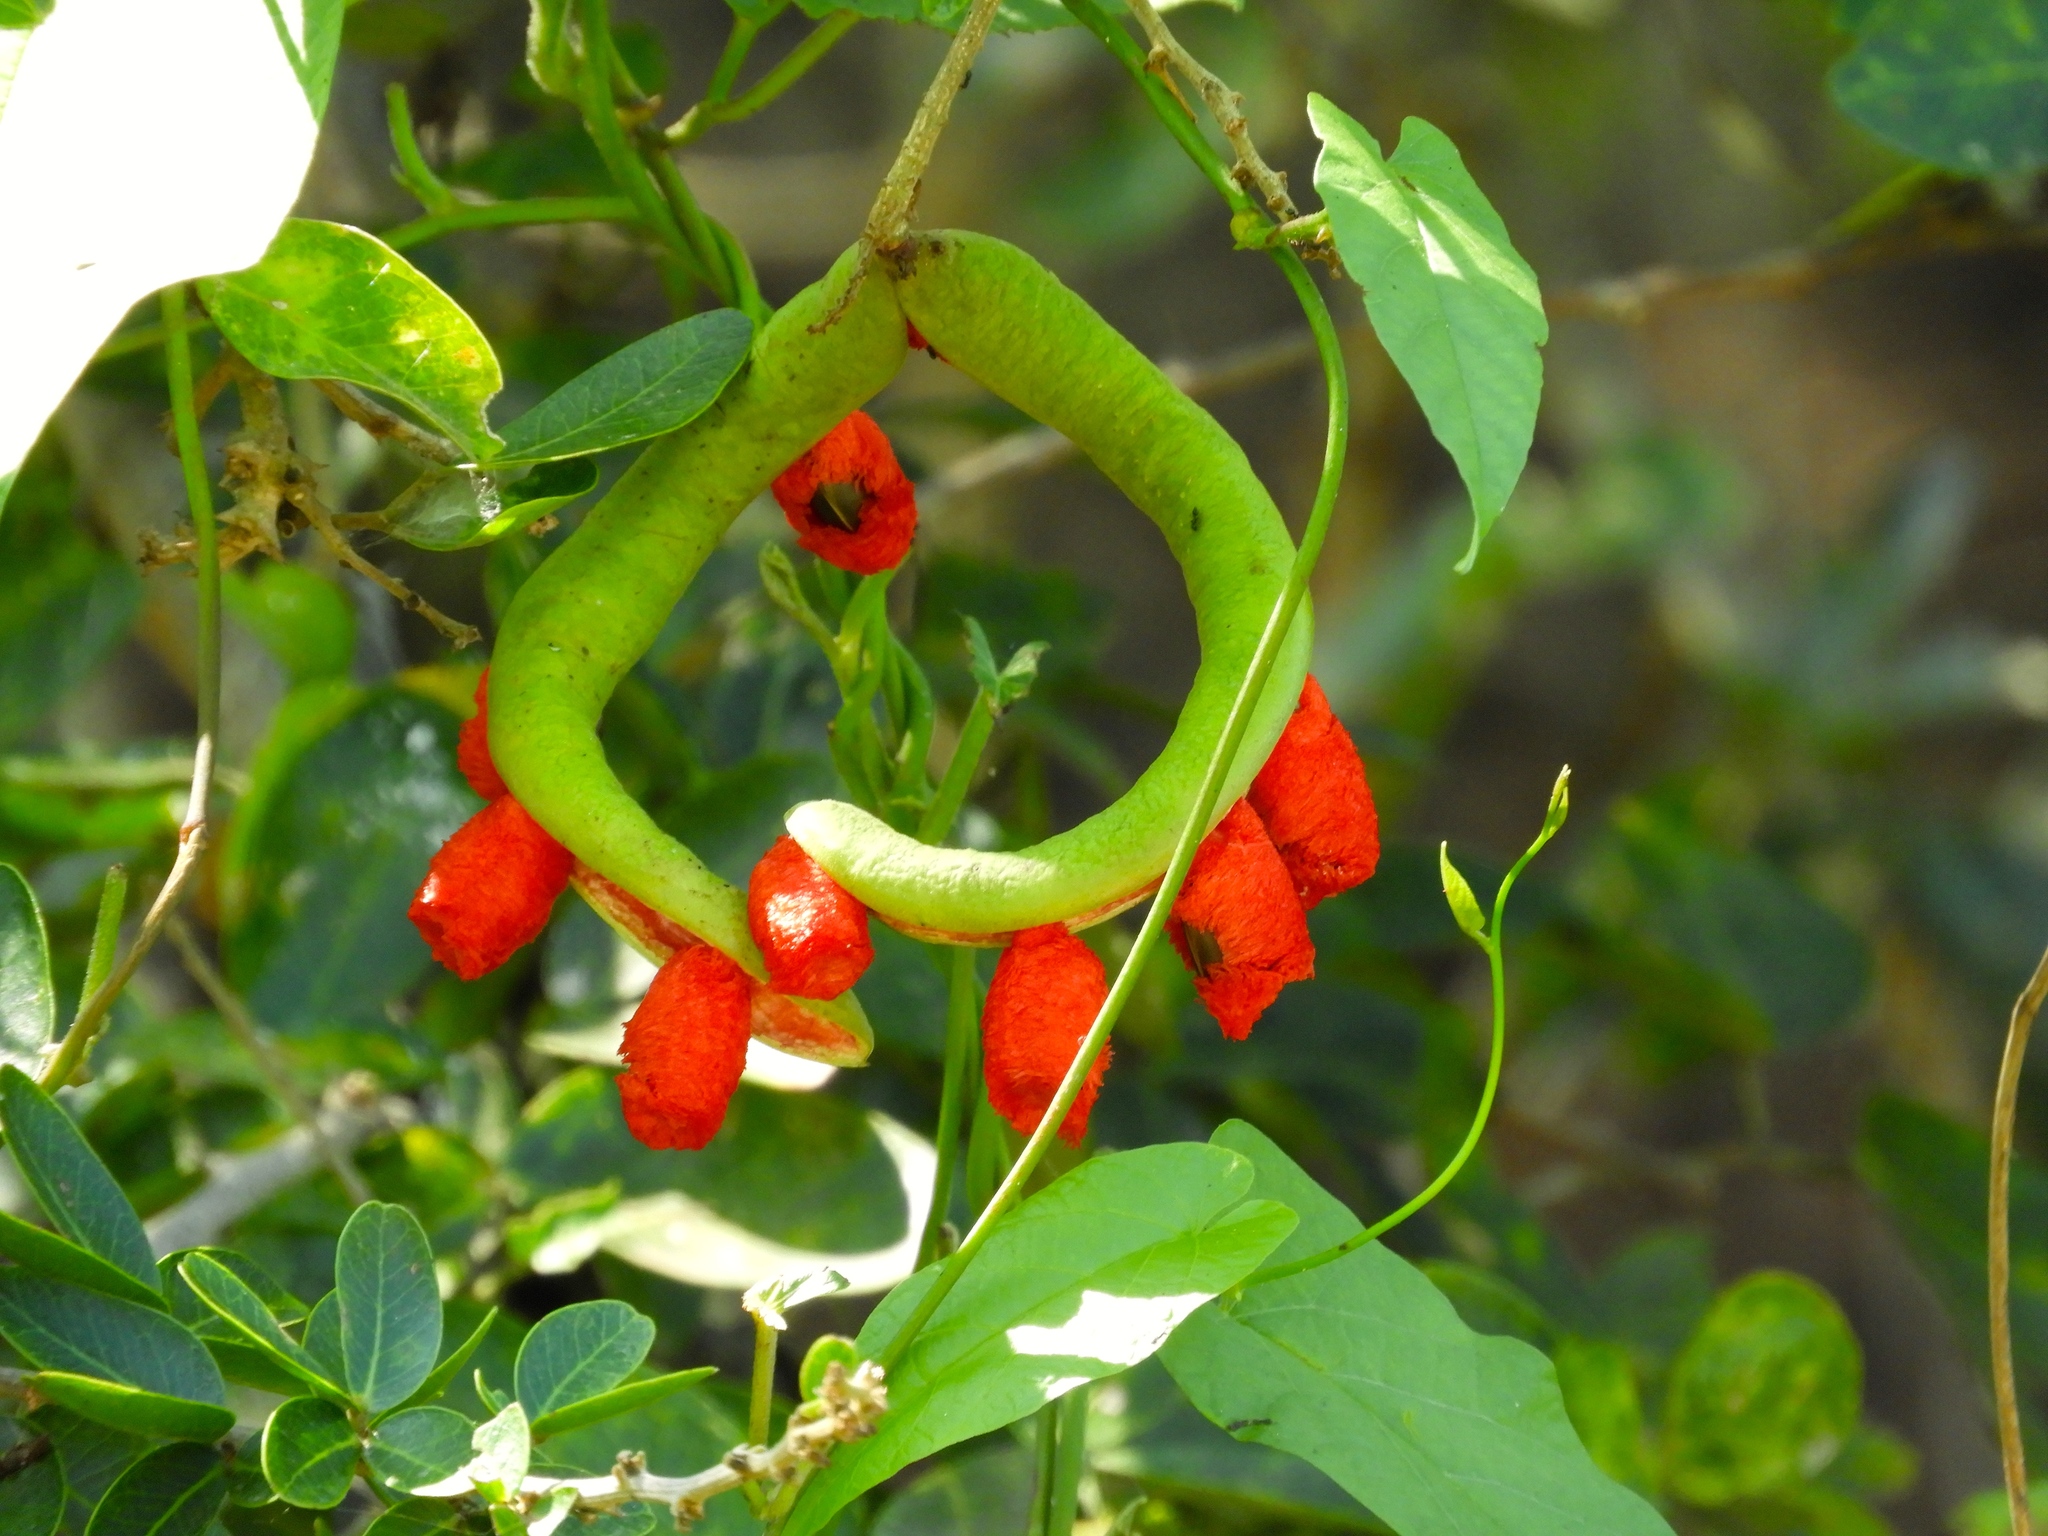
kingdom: Plantae
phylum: Tracheophyta
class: Magnoliopsida
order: Fabales
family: Fabaceae
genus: Pithecellobium
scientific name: Pithecellobium lanceolatum
